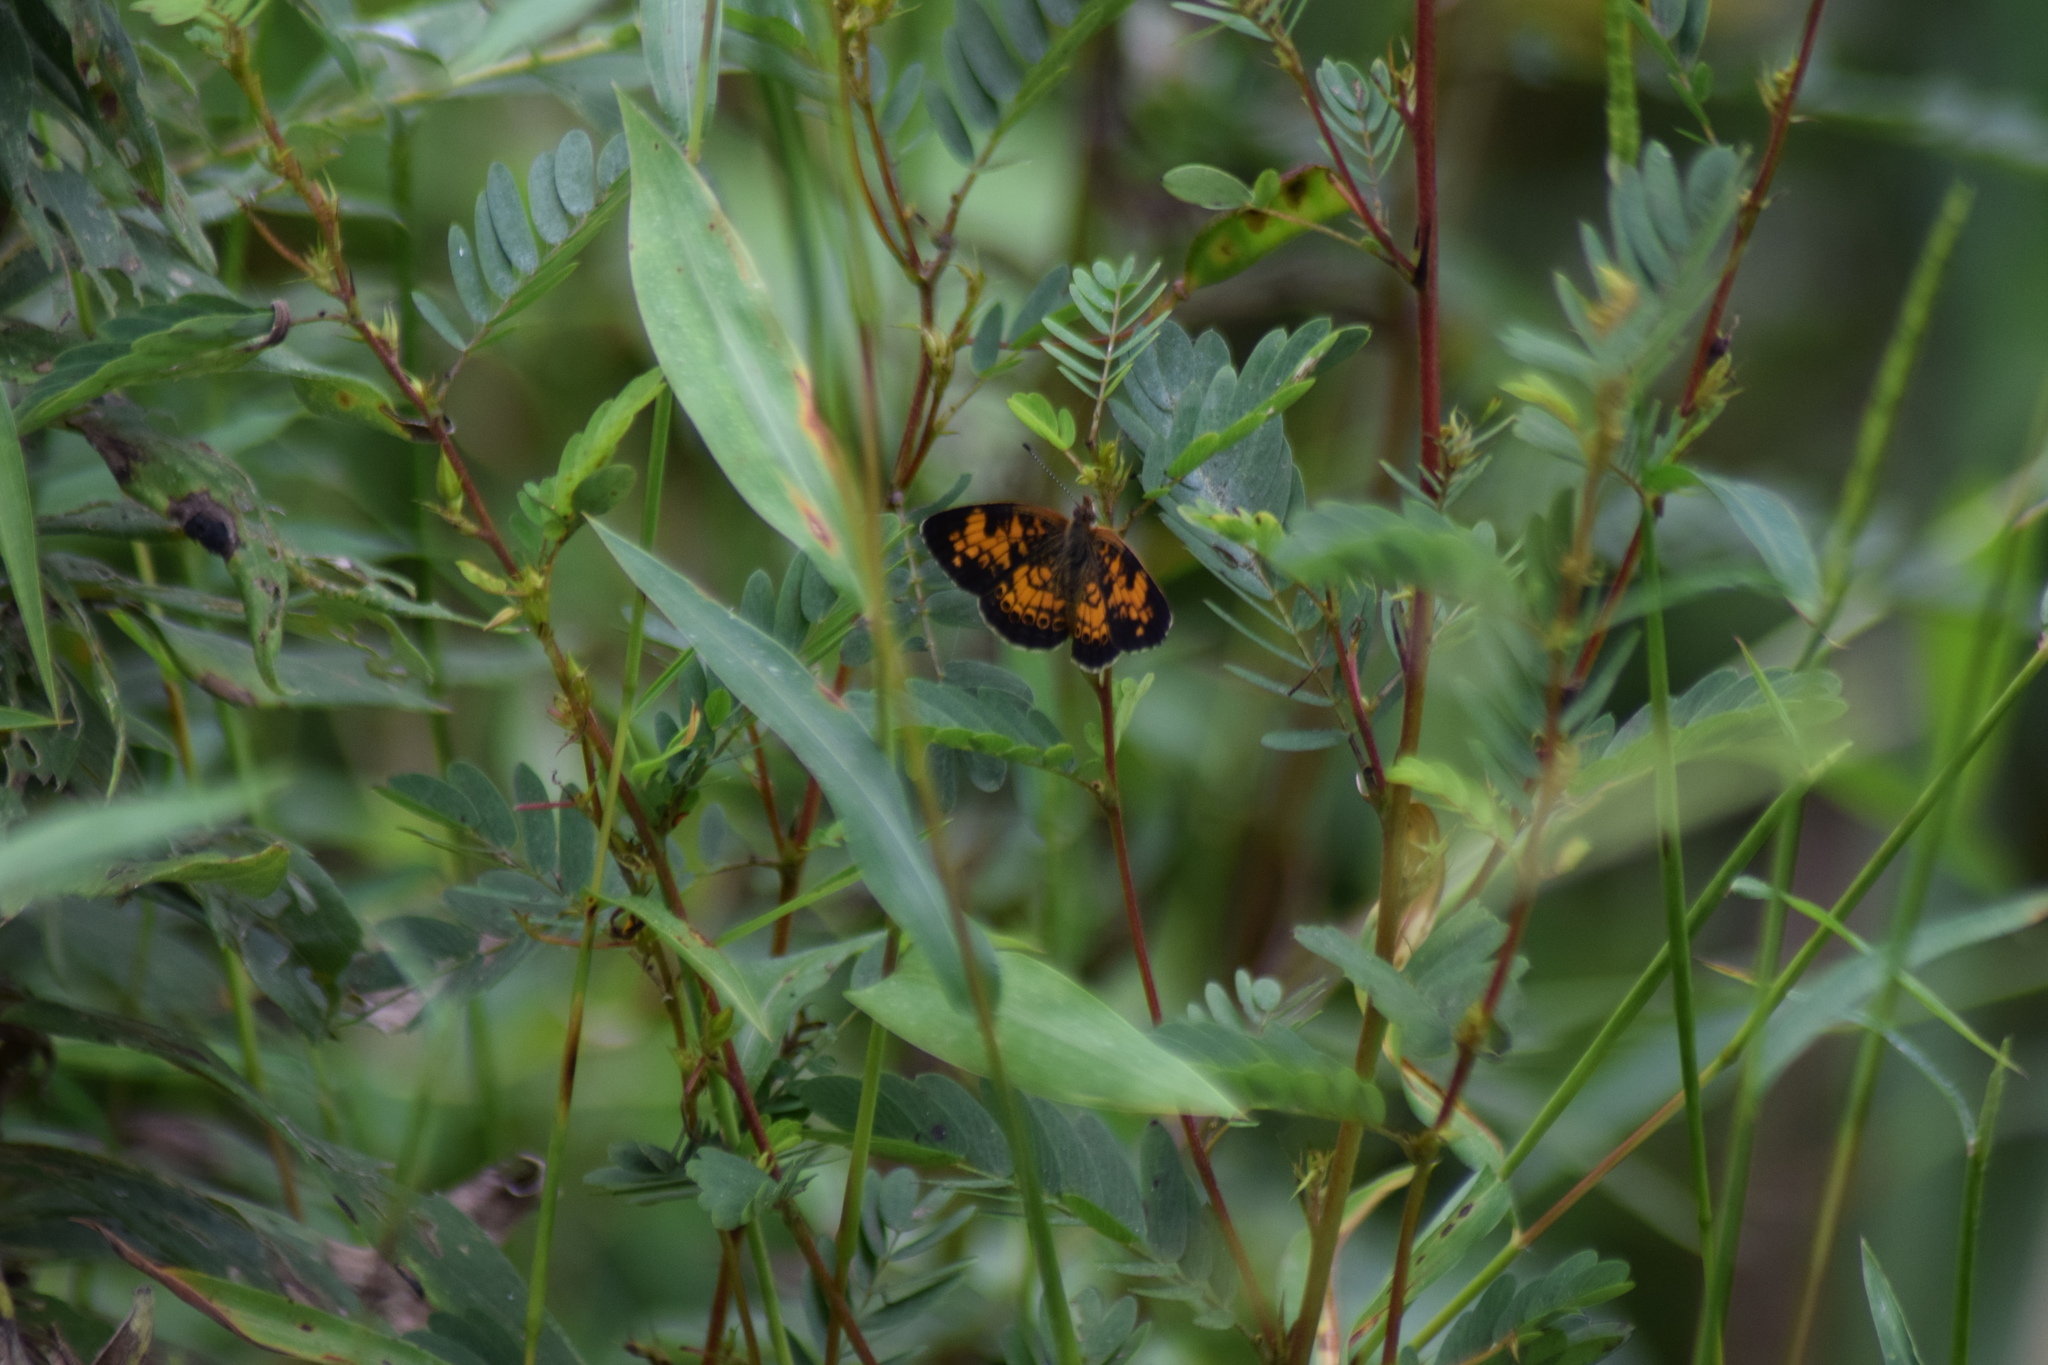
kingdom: Animalia
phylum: Arthropoda
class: Insecta
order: Lepidoptera
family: Nymphalidae
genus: Phyciodes
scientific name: Phyciodes tharos
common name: Pearl crescent
